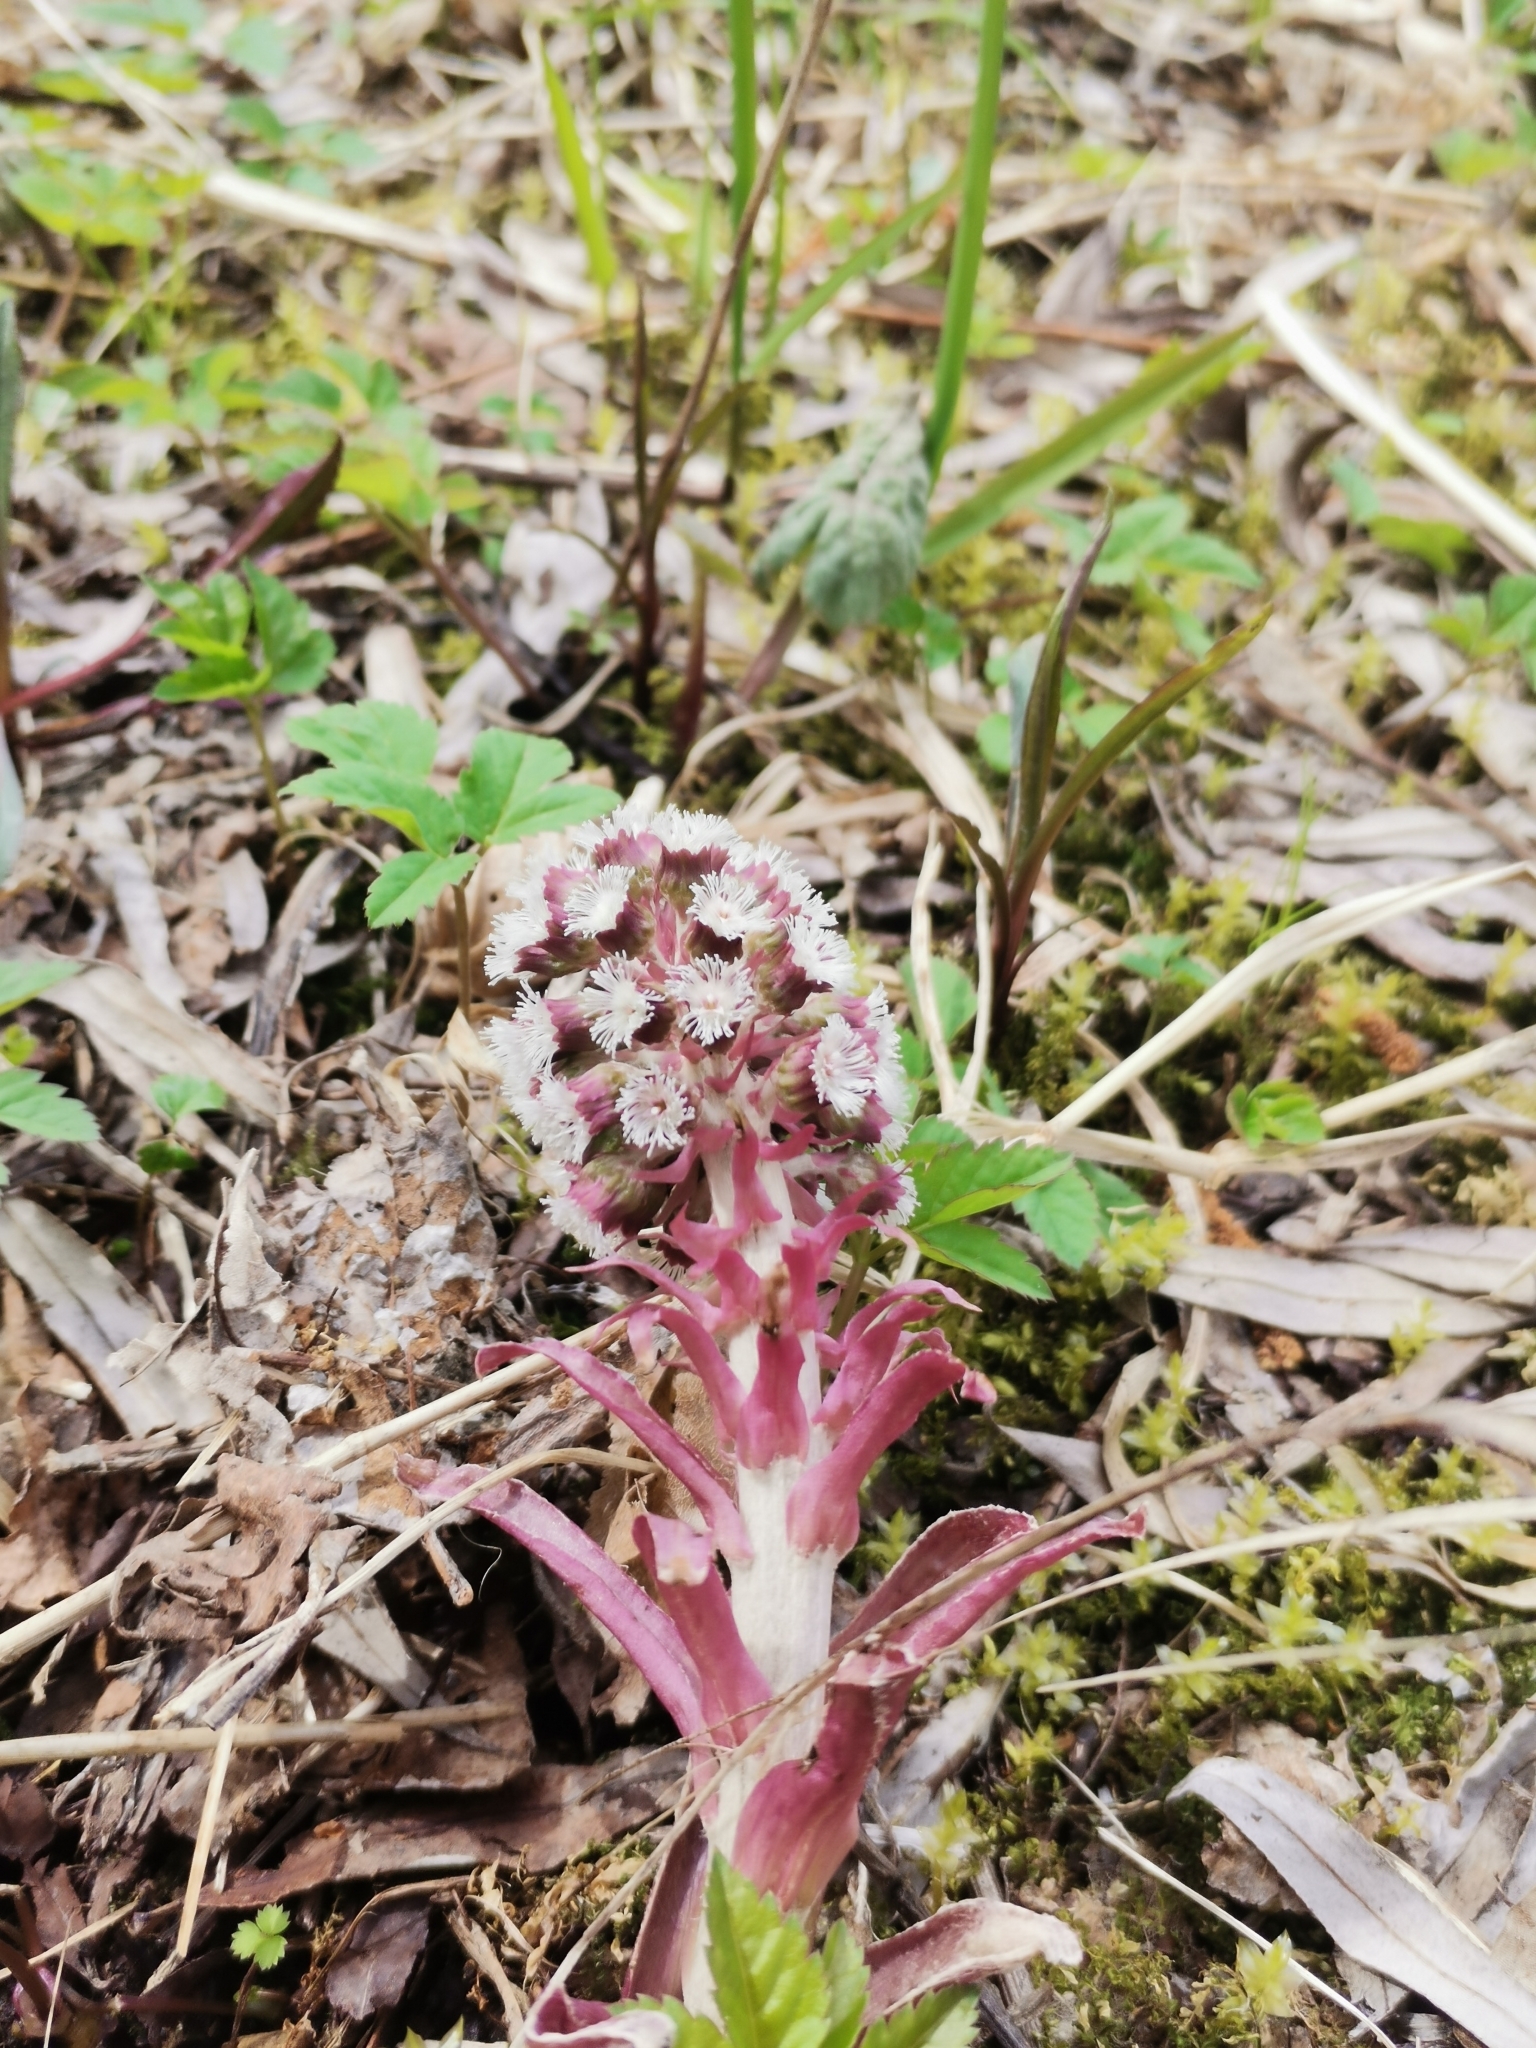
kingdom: Plantae
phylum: Tracheophyta
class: Magnoliopsida
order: Asterales
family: Asteraceae
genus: Petasites
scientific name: Petasites hybridus
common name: Butterbur
